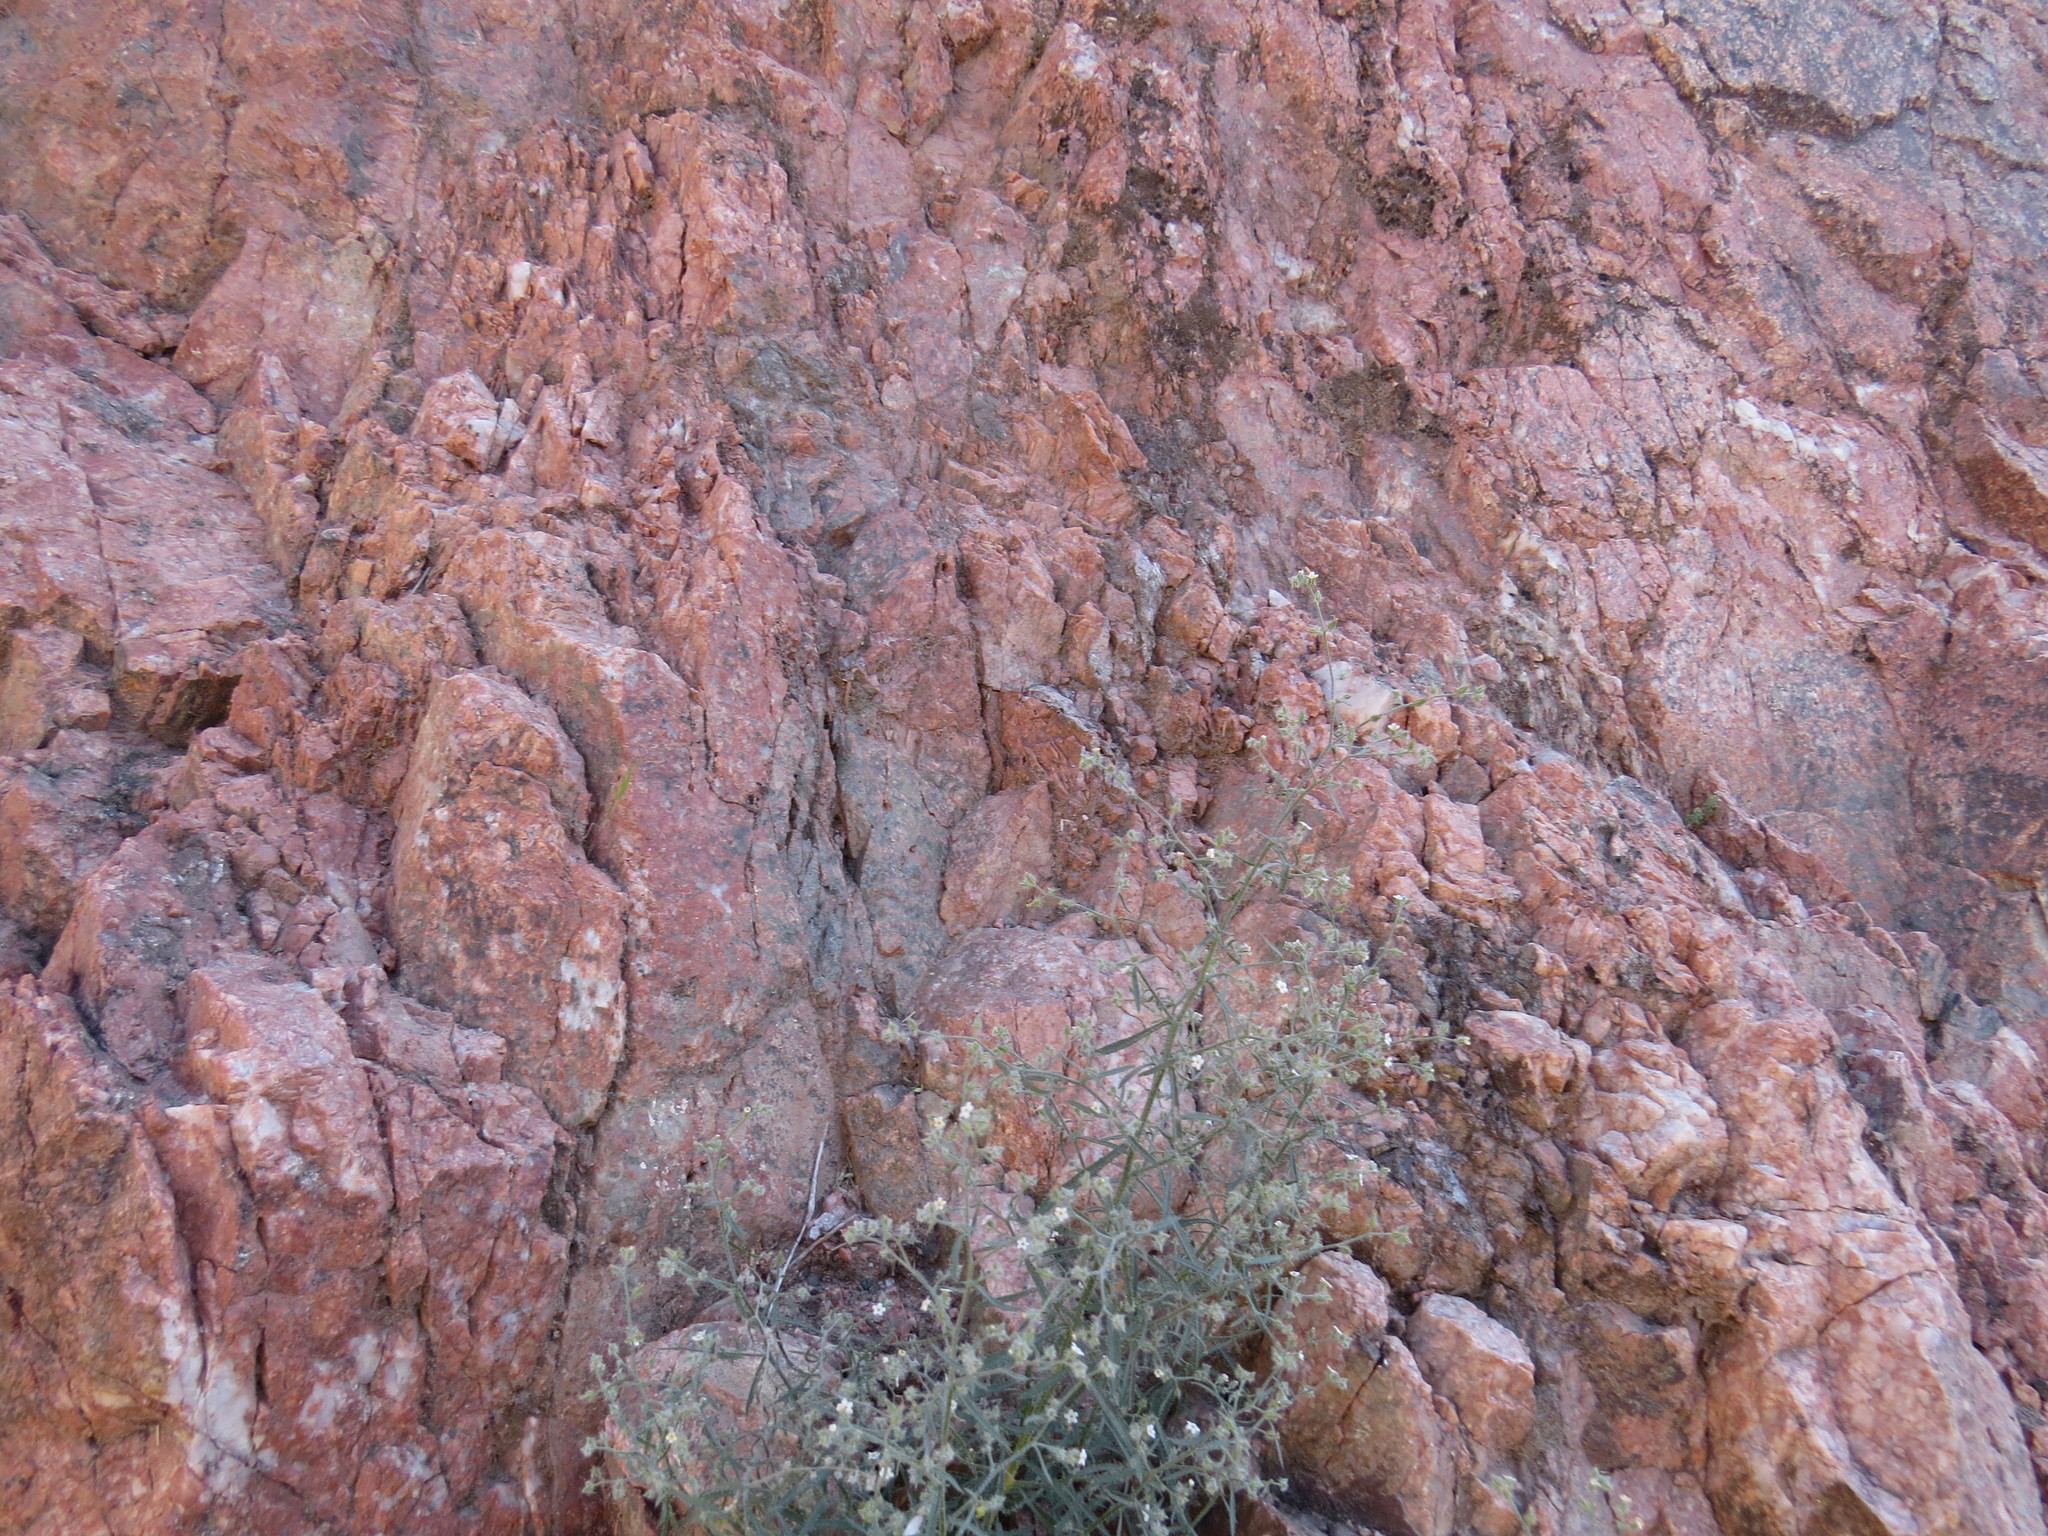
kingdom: Plantae
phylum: Tracheophyta
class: Magnoliopsida
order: Boraginales
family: Boraginaceae
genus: Johnstonella
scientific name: Johnstonella racemosa
